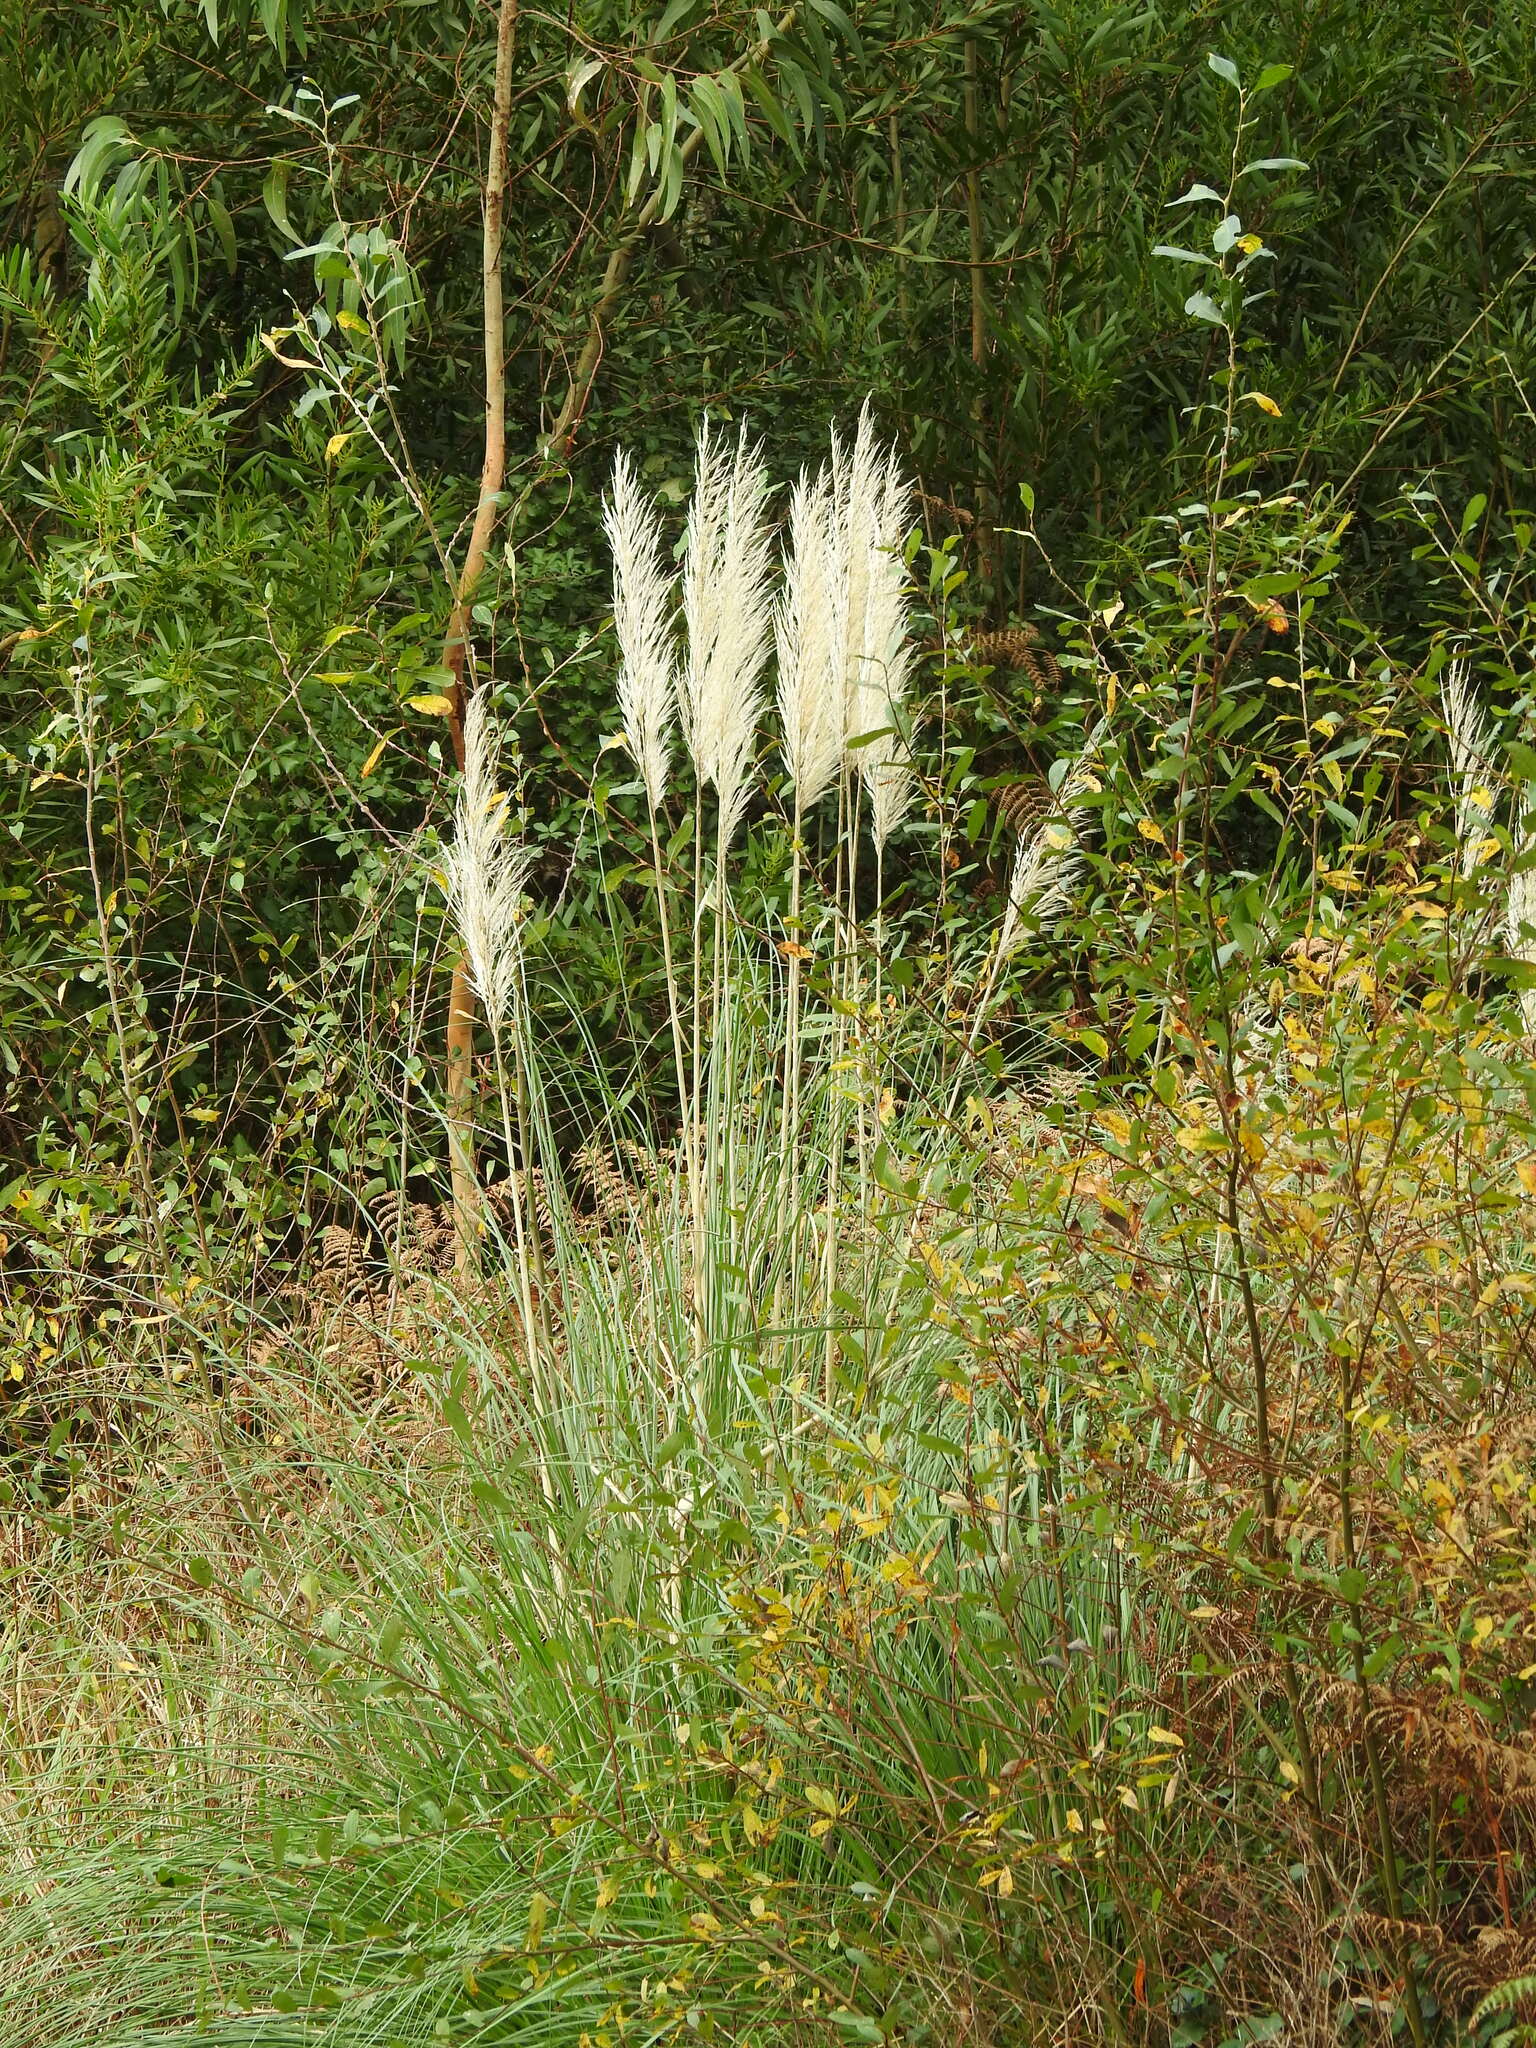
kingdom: Plantae
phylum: Tracheophyta
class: Liliopsida
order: Poales
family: Poaceae
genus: Cortaderia
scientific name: Cortaderia selloana
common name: Uruguayan pampas grass
